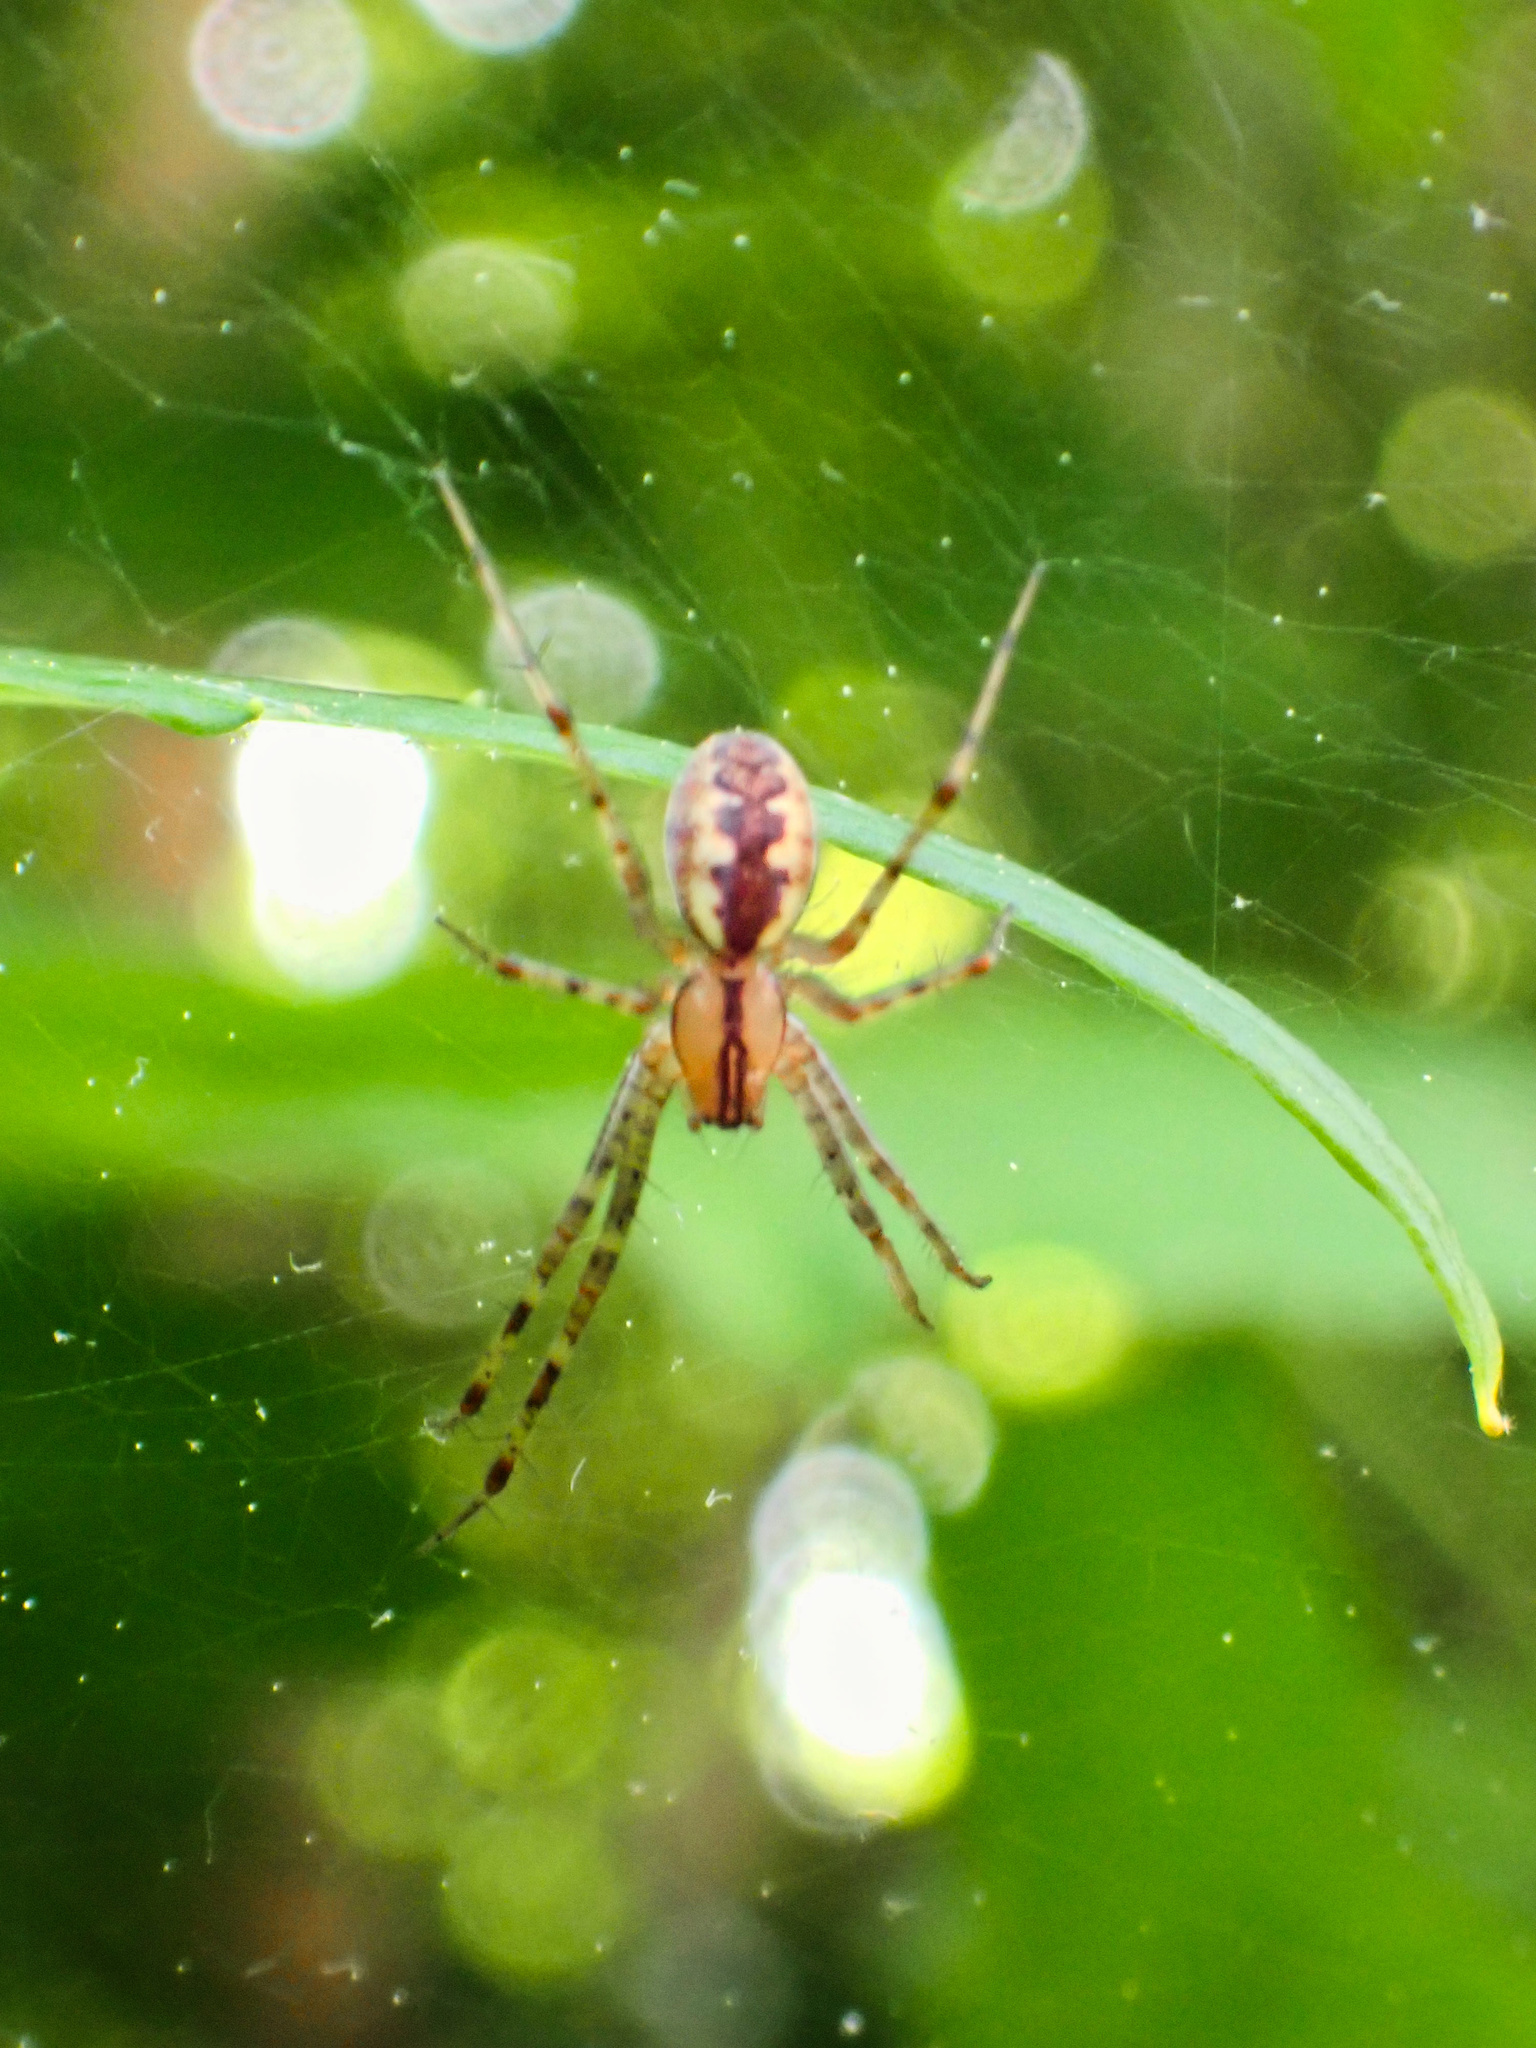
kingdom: Animalia
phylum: Arthropoda
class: Arachnida
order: Araneae
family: Linyphiidae
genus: Pityohyphantes
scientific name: Pityohyphantes costatus
